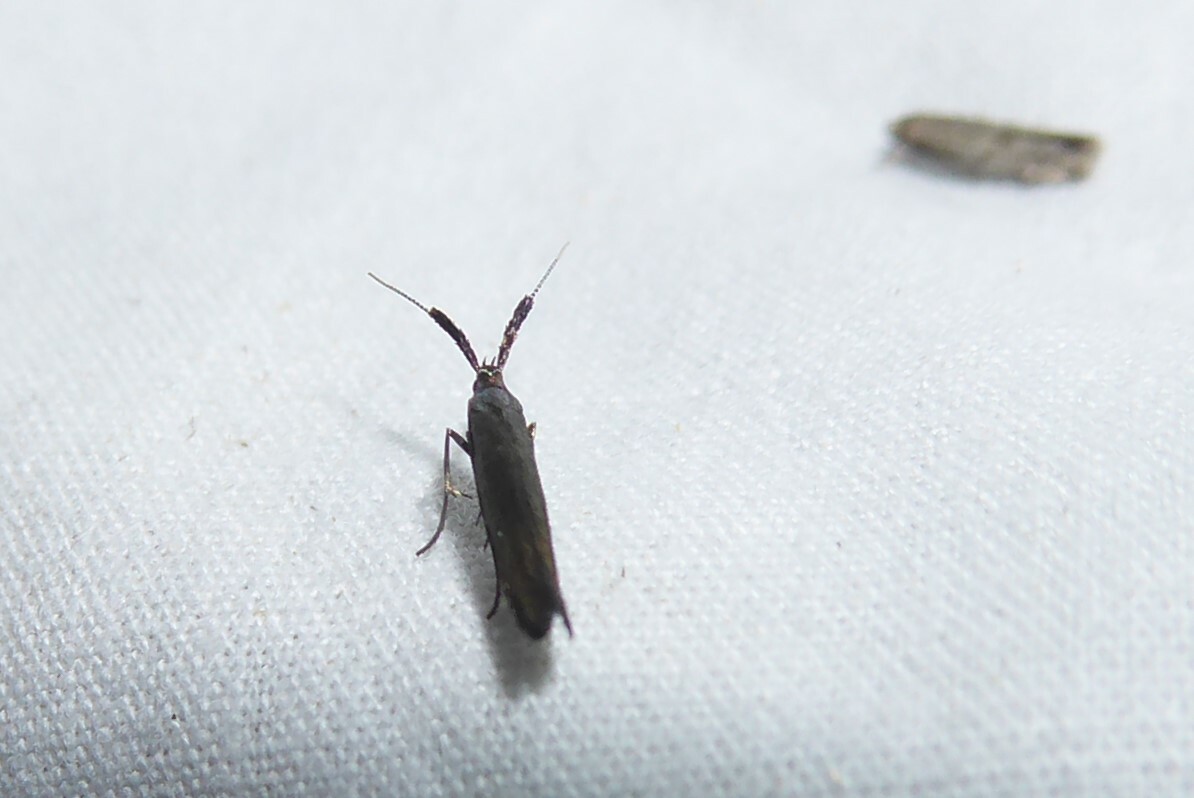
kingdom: Animalia
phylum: Arthropoda
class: Insecta
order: Lepidoptera
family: Coleophoridae
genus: Coleophora
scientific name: Coleophora mayrella
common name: Meadow case-bearer
